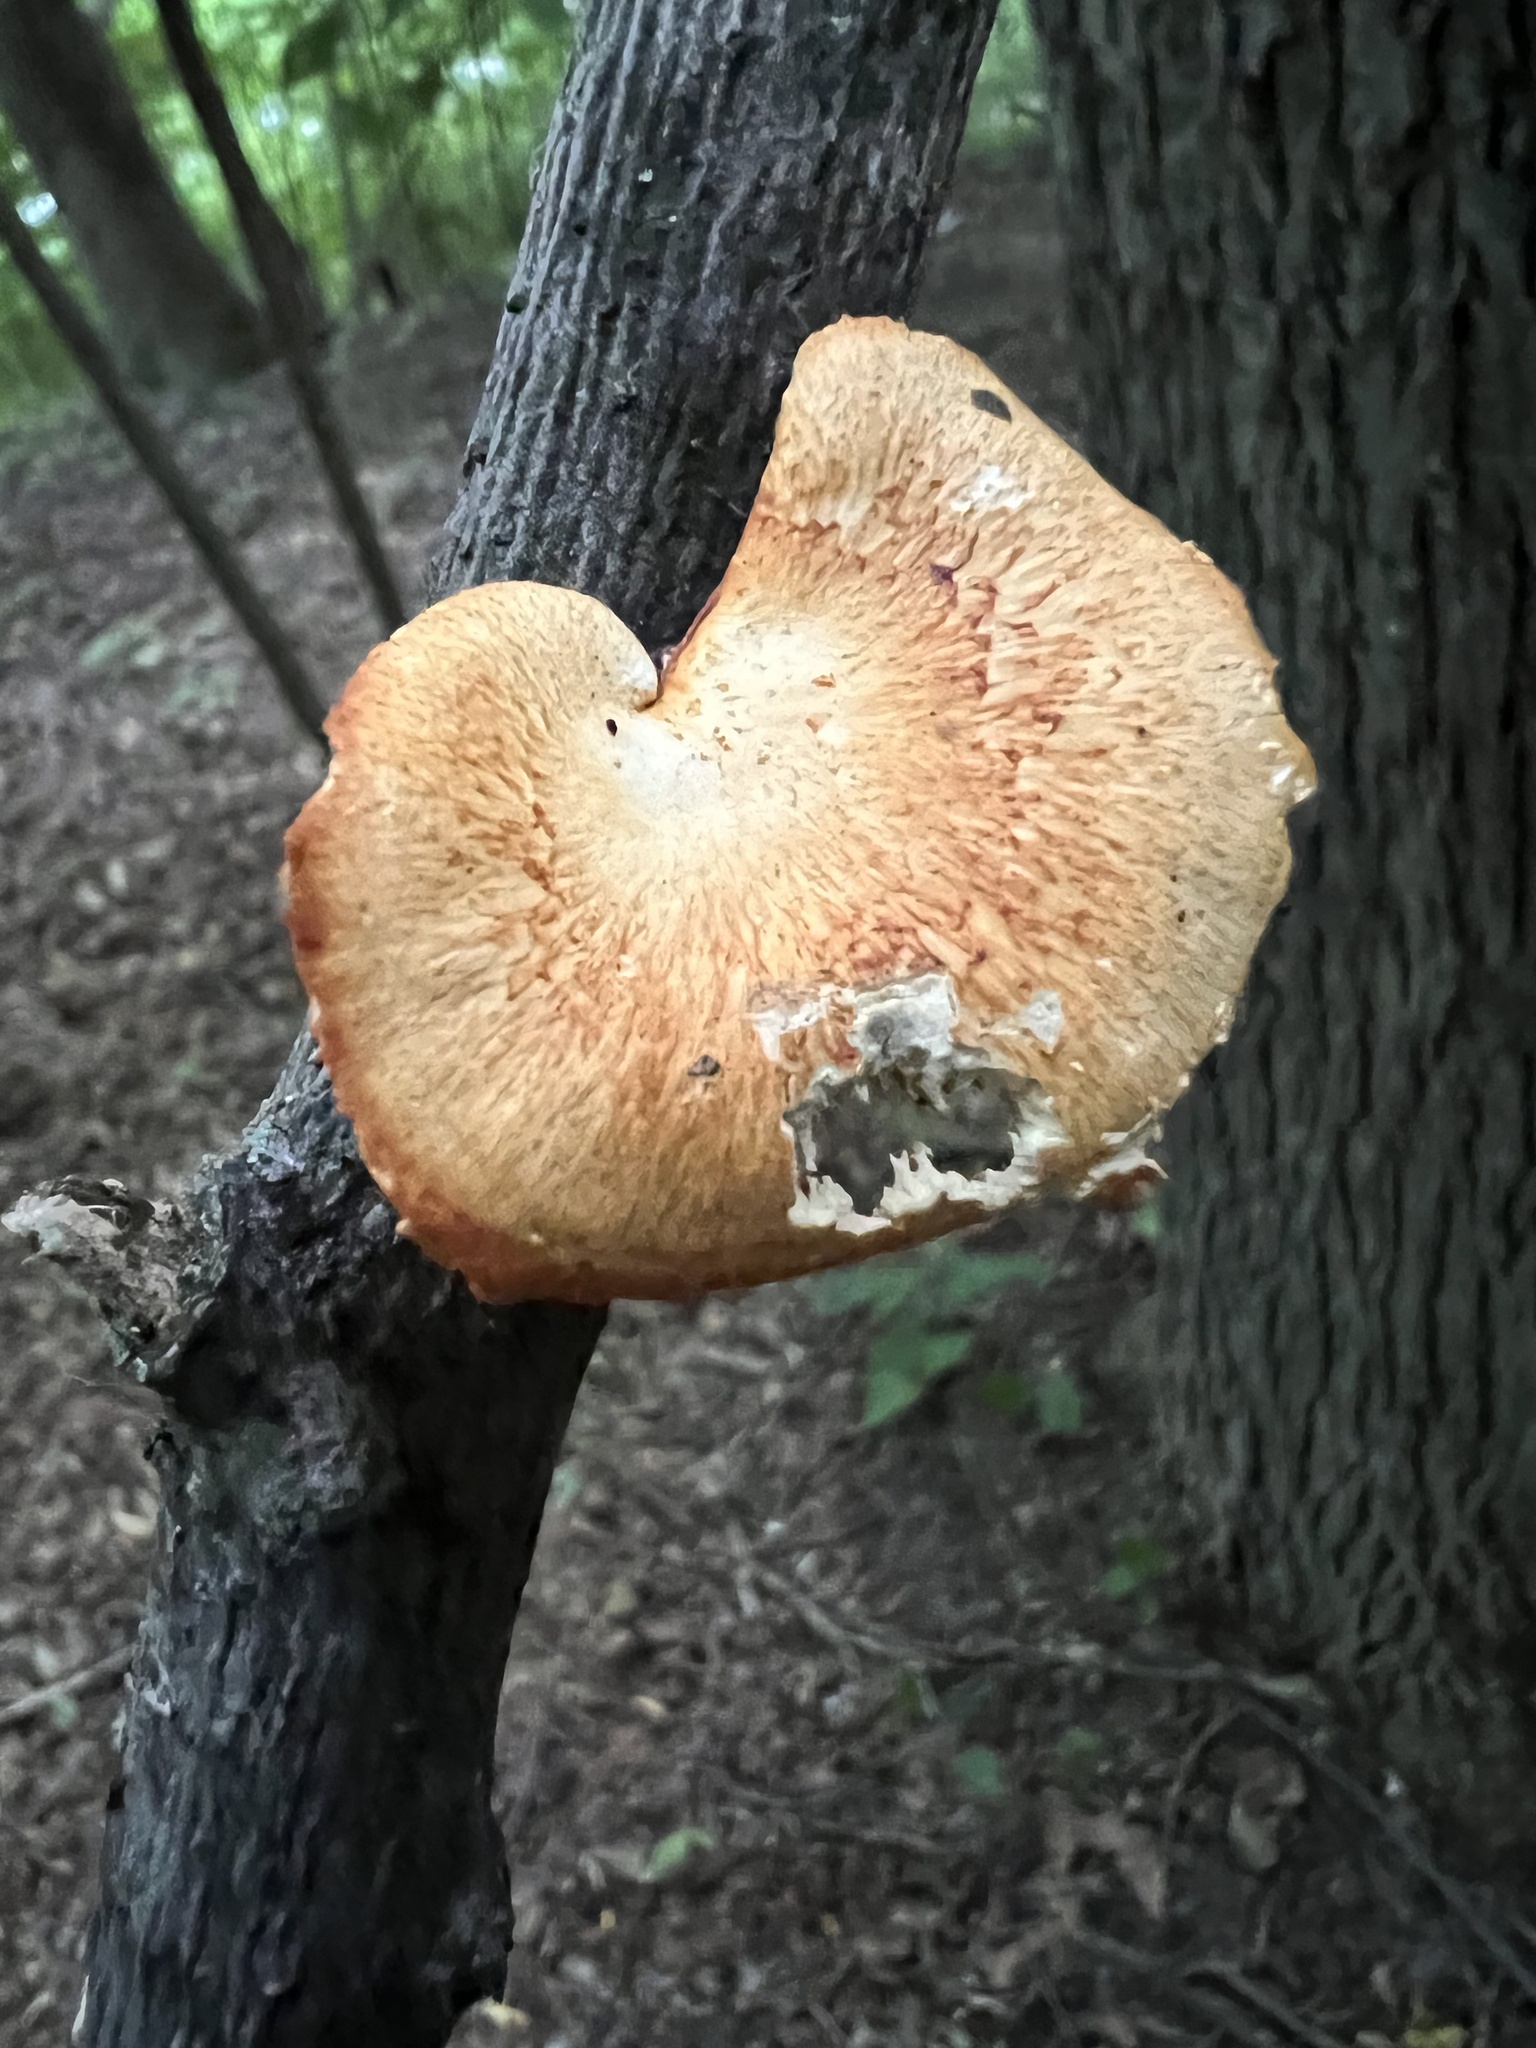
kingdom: Fungi
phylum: Basidiomycota
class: Agaricomycetes
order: Polyporales
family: Polyporaceae
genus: Neofavolus
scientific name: Neofavolus alveolaris
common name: Hexagonal-pored polypore
